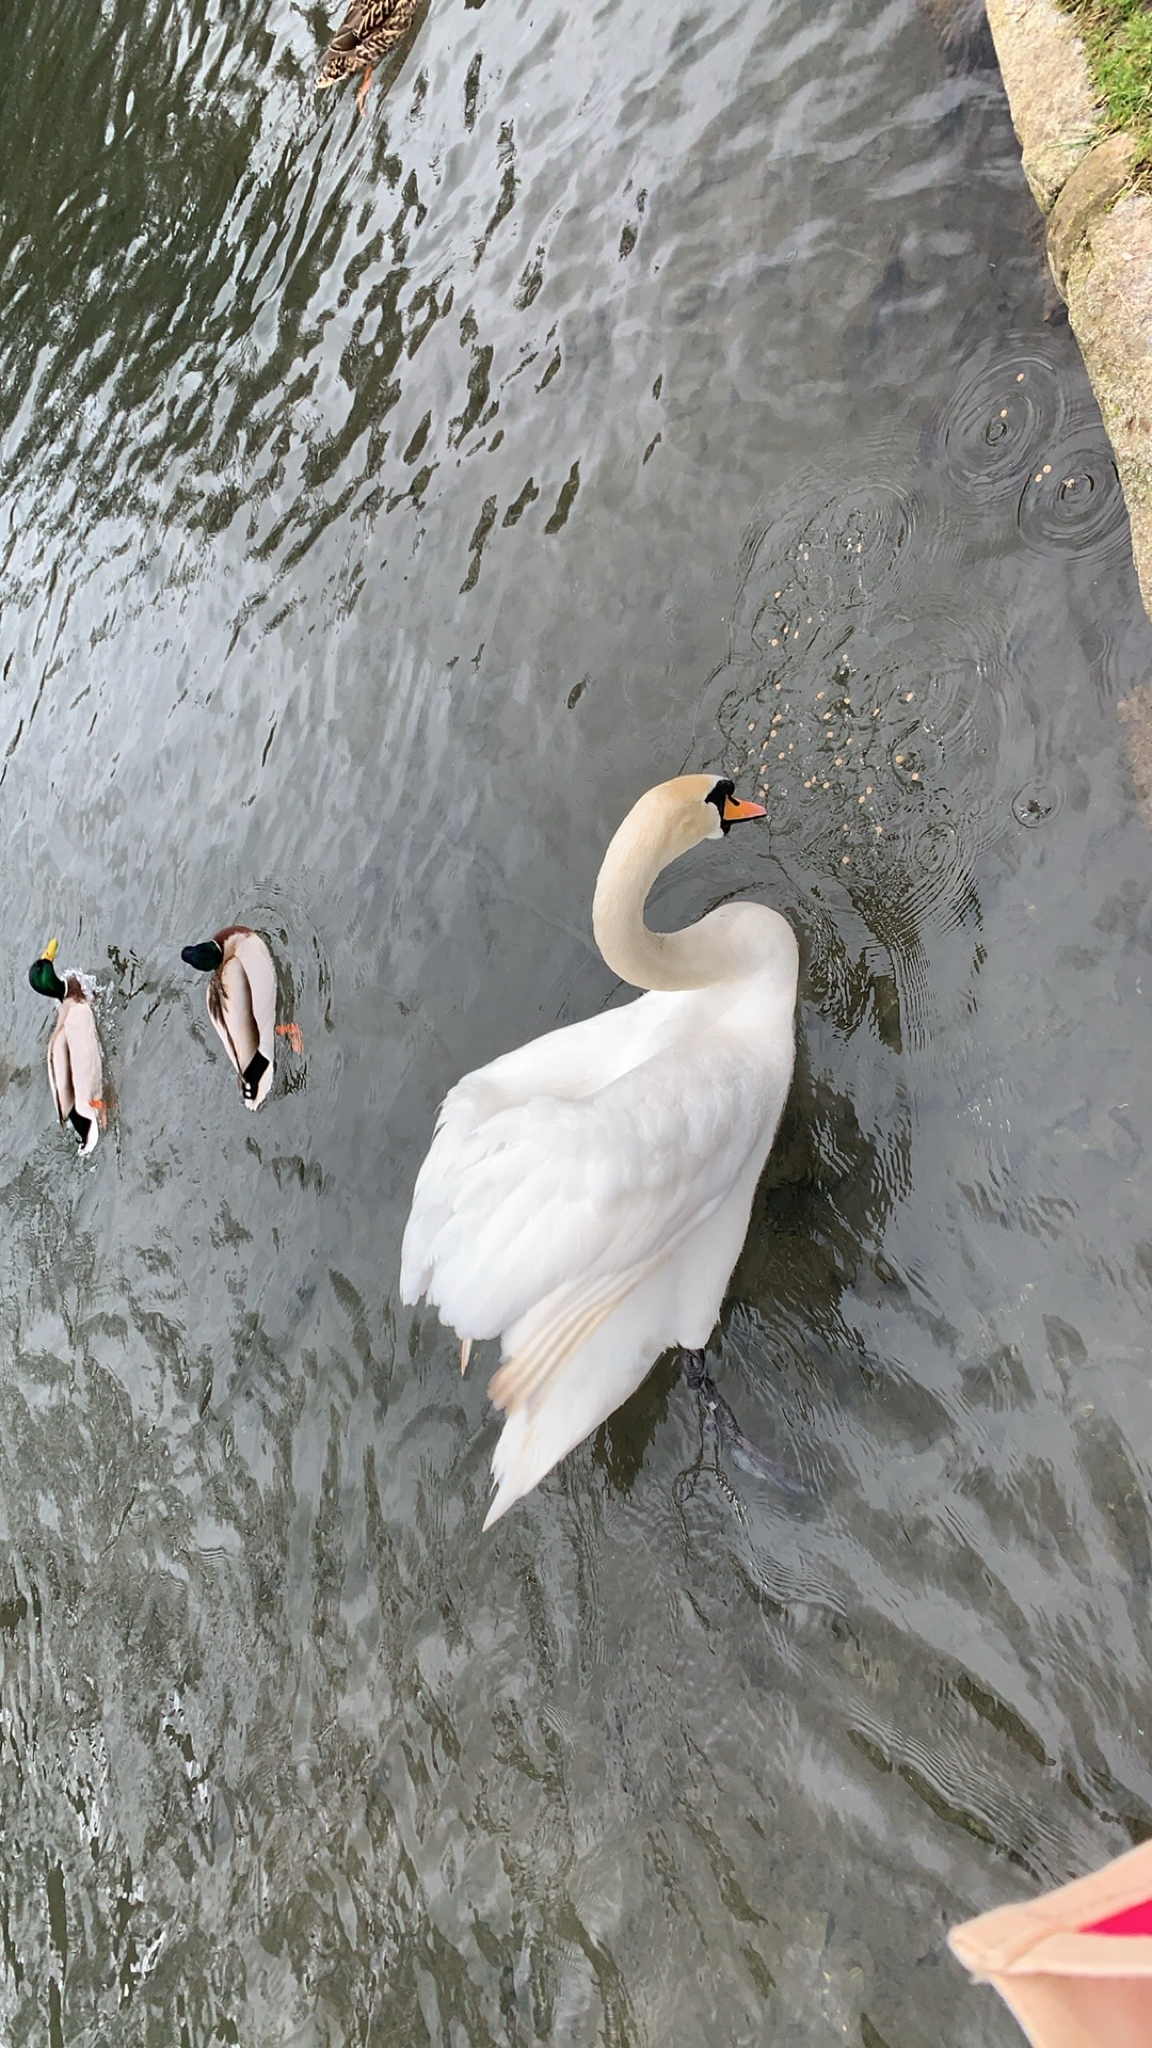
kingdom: Animalia
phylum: Chordata
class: Aves
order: Anseriformes
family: Anatidae
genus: Cygnus
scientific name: Cygnus olor
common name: Mute swan
